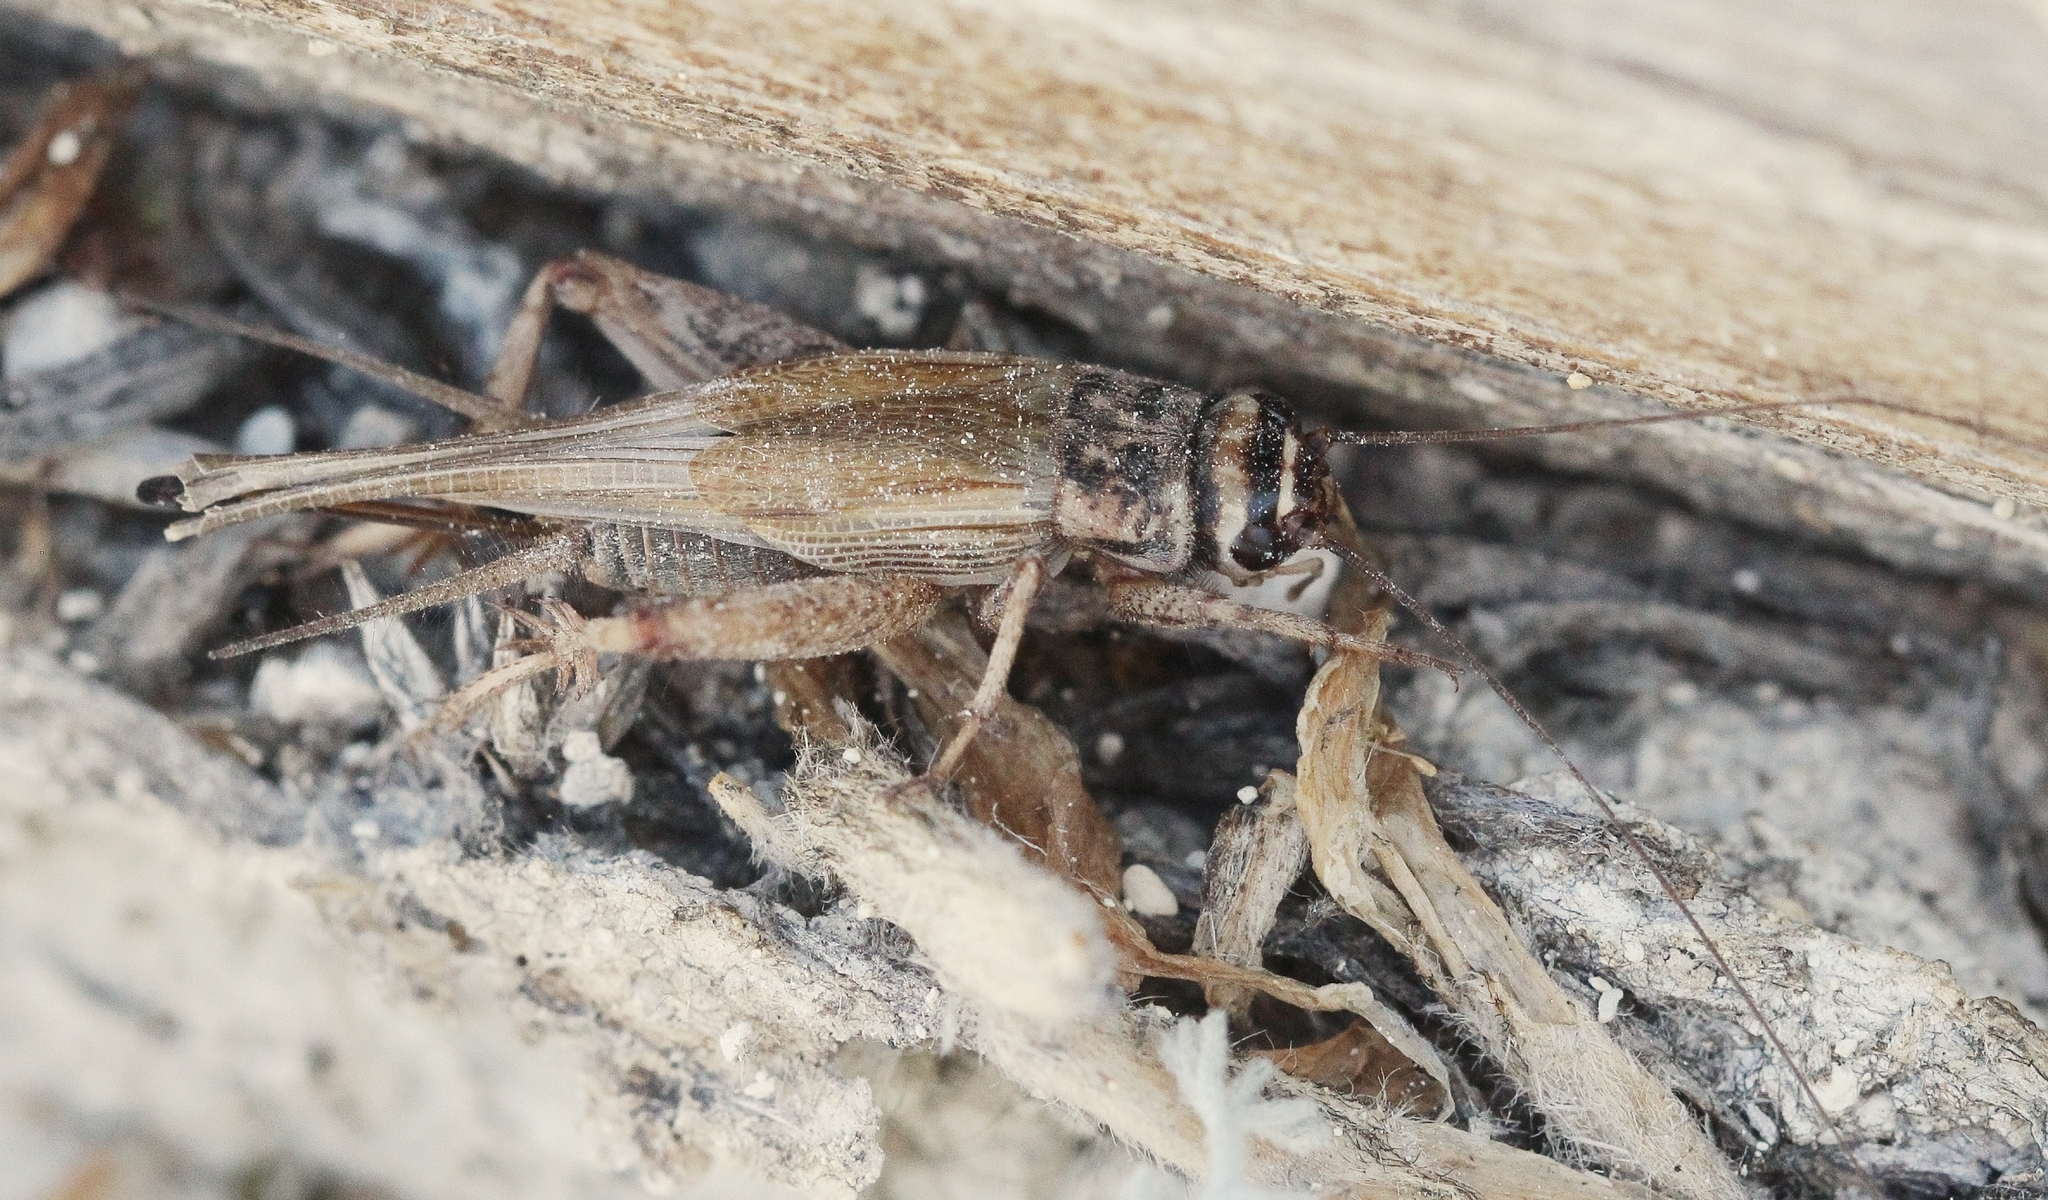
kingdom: Animalia
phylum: Arthropoda
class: Insecta
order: Orthoptera
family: Gryllidae
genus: Tartarogryllus
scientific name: Tartarogryllus tartarus
